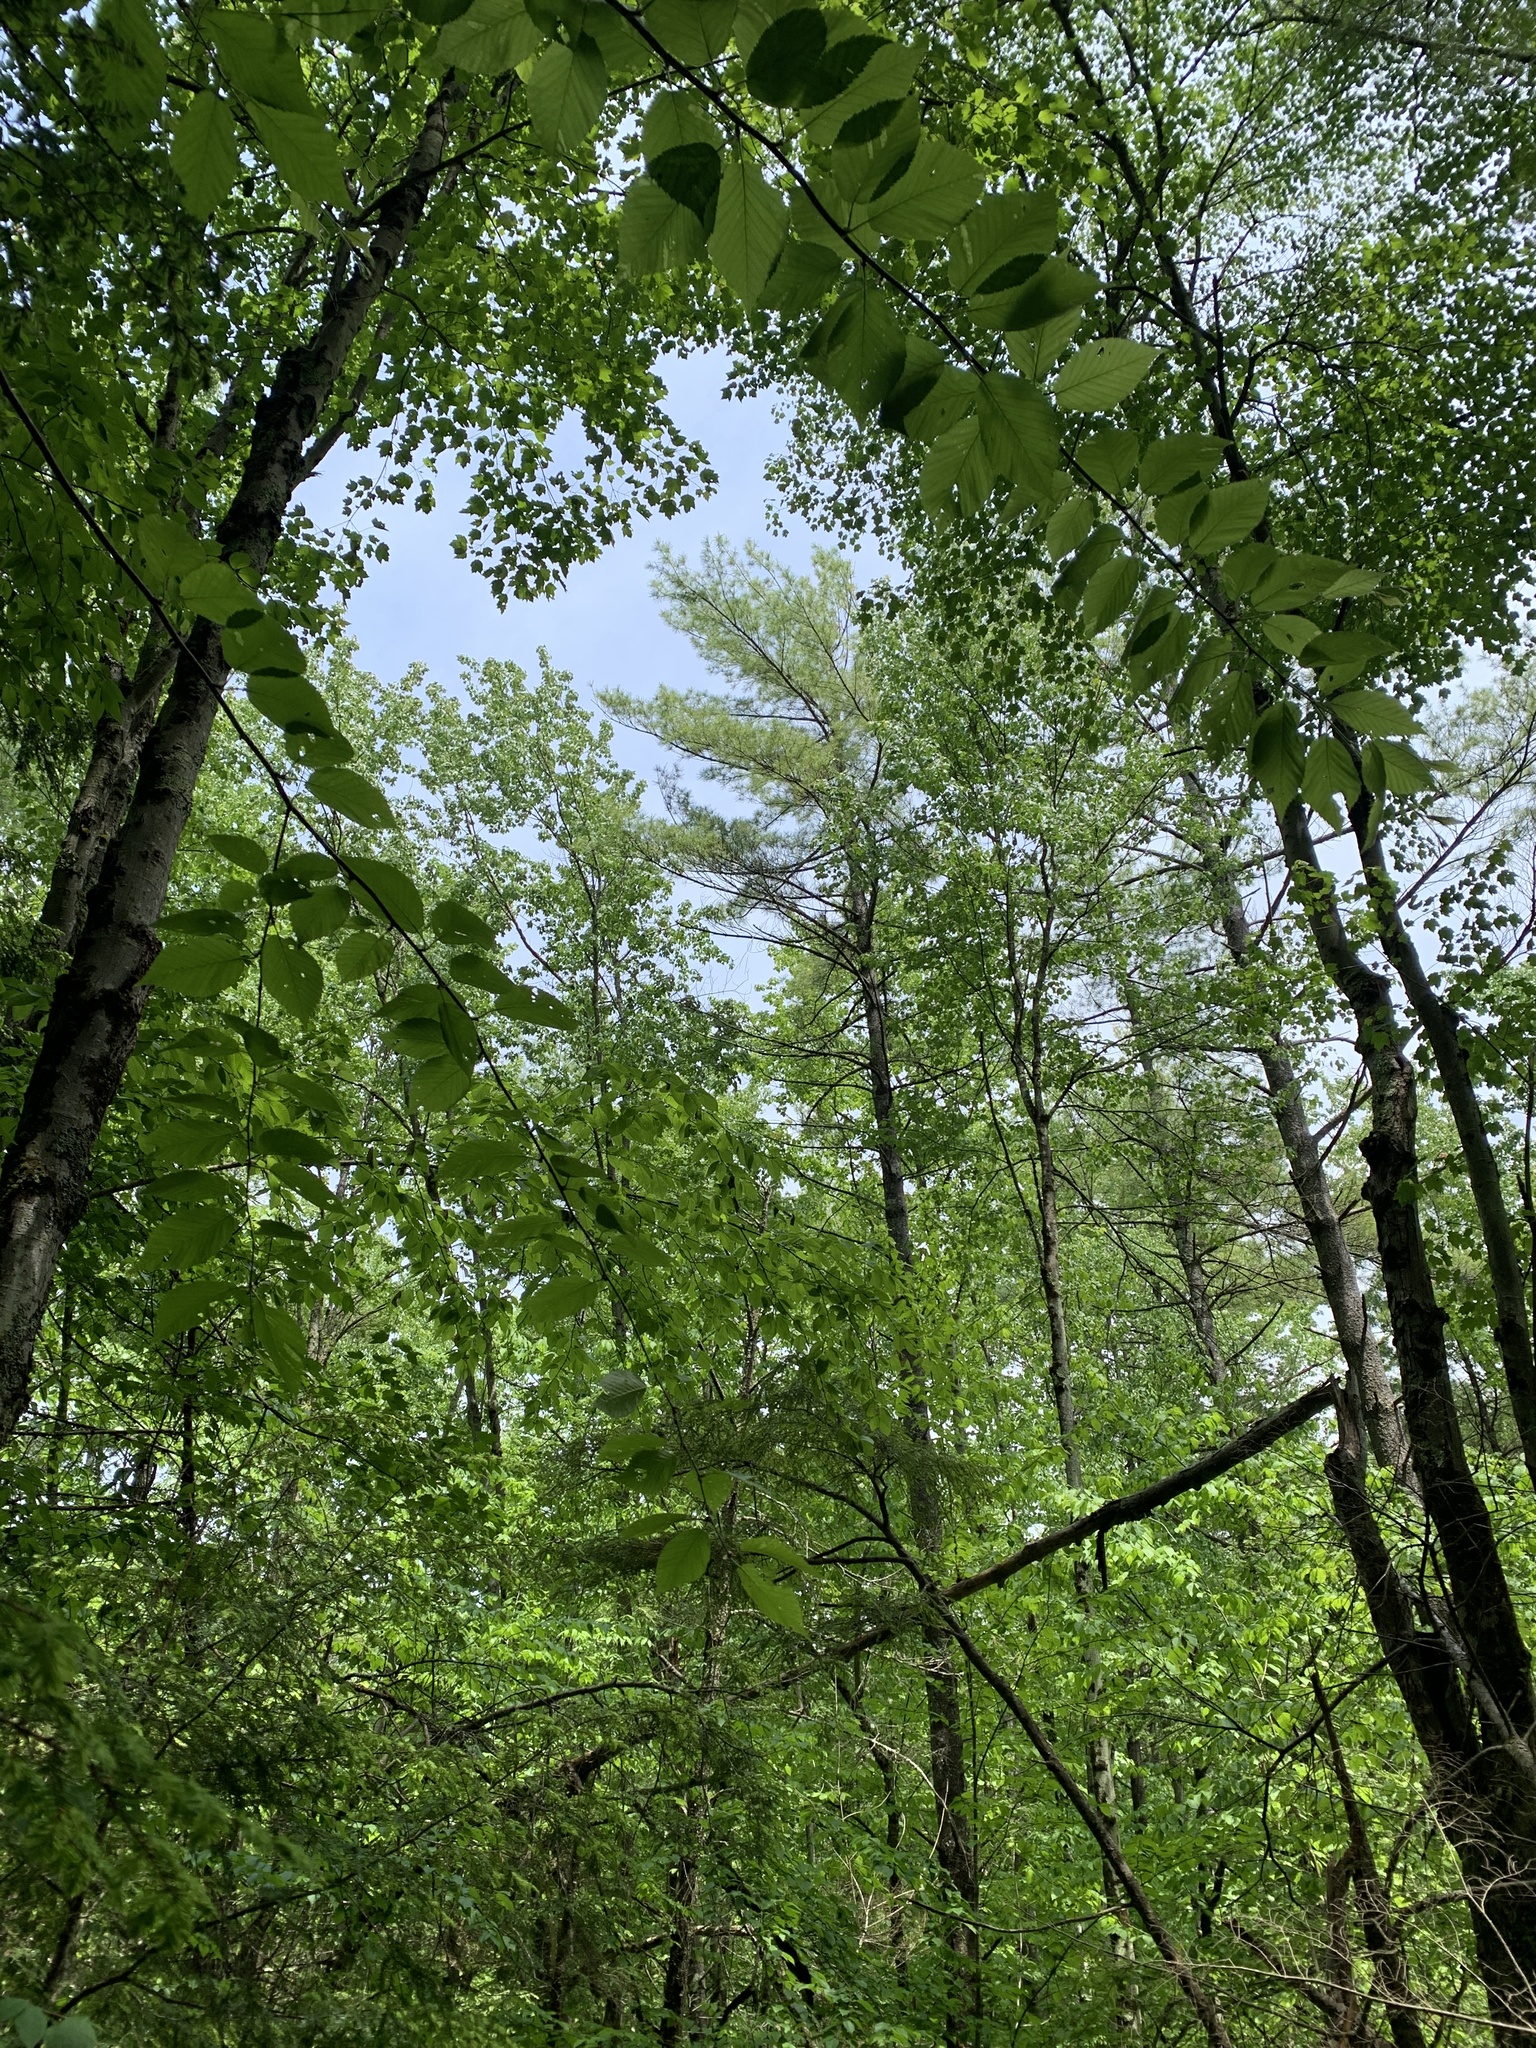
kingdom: Plantae
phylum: Tracheophyta
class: Pinopsida
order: Pinales
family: Pinaceae
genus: Pinus
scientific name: Pinus strobus
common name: Weymouth pine
